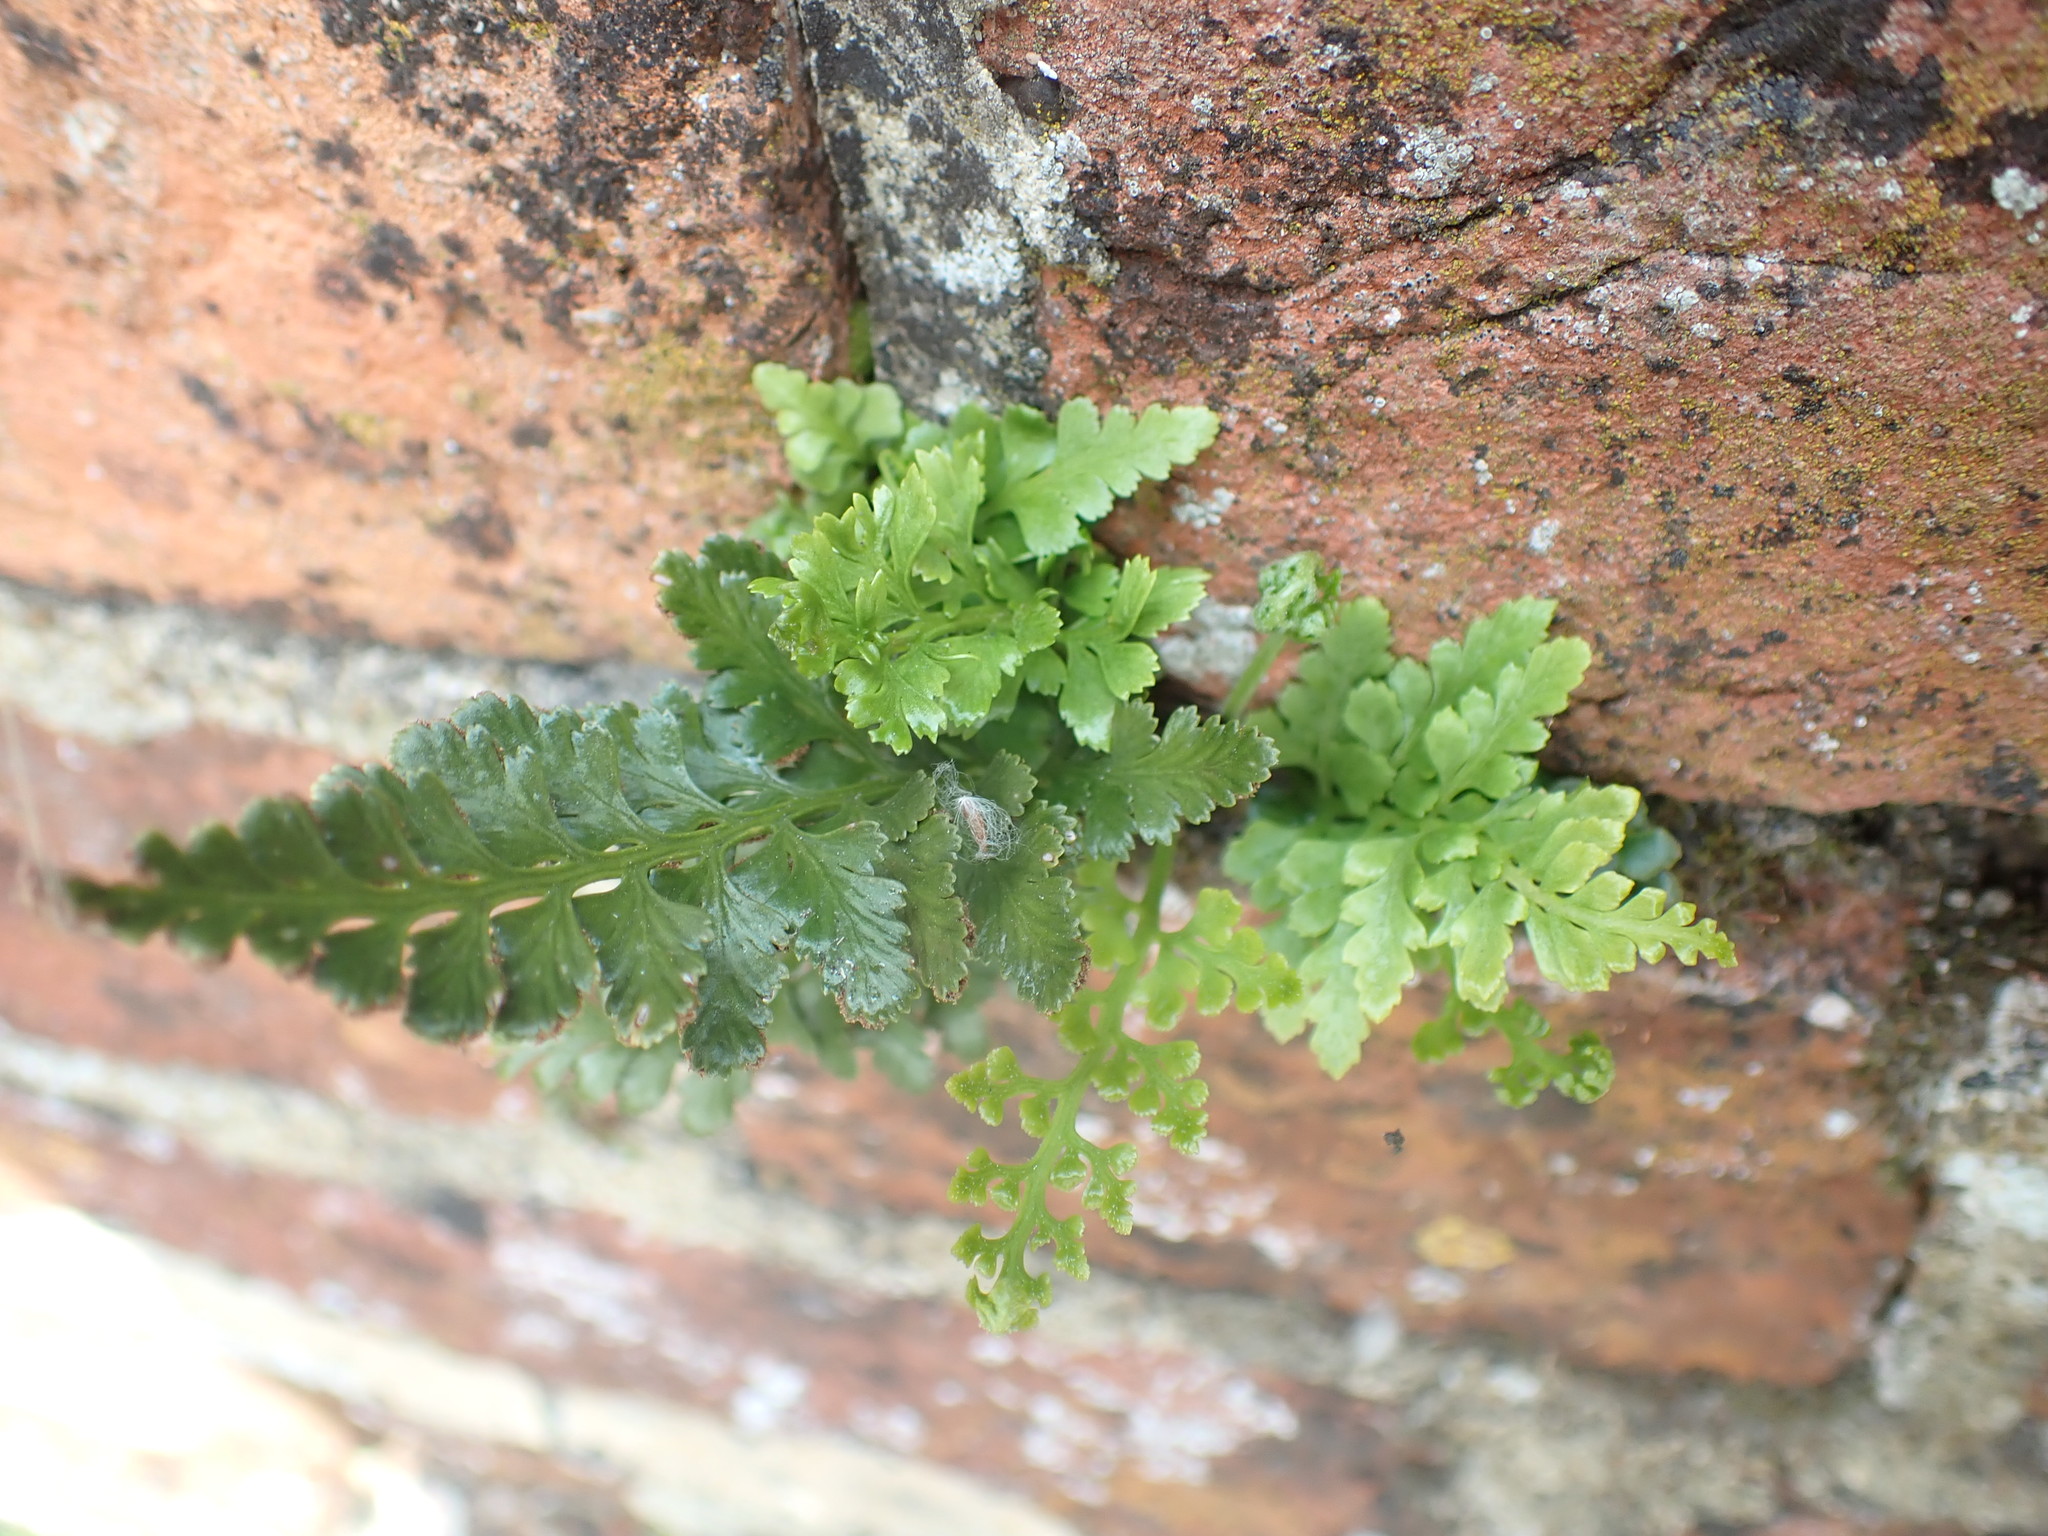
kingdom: Plantae
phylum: Tracheophyta
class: Polypodiopsida
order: Polypodiales
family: Aspleniaceae
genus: Asplenium
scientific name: Asplenium adiantum-nigrum
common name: Black spleenwort
